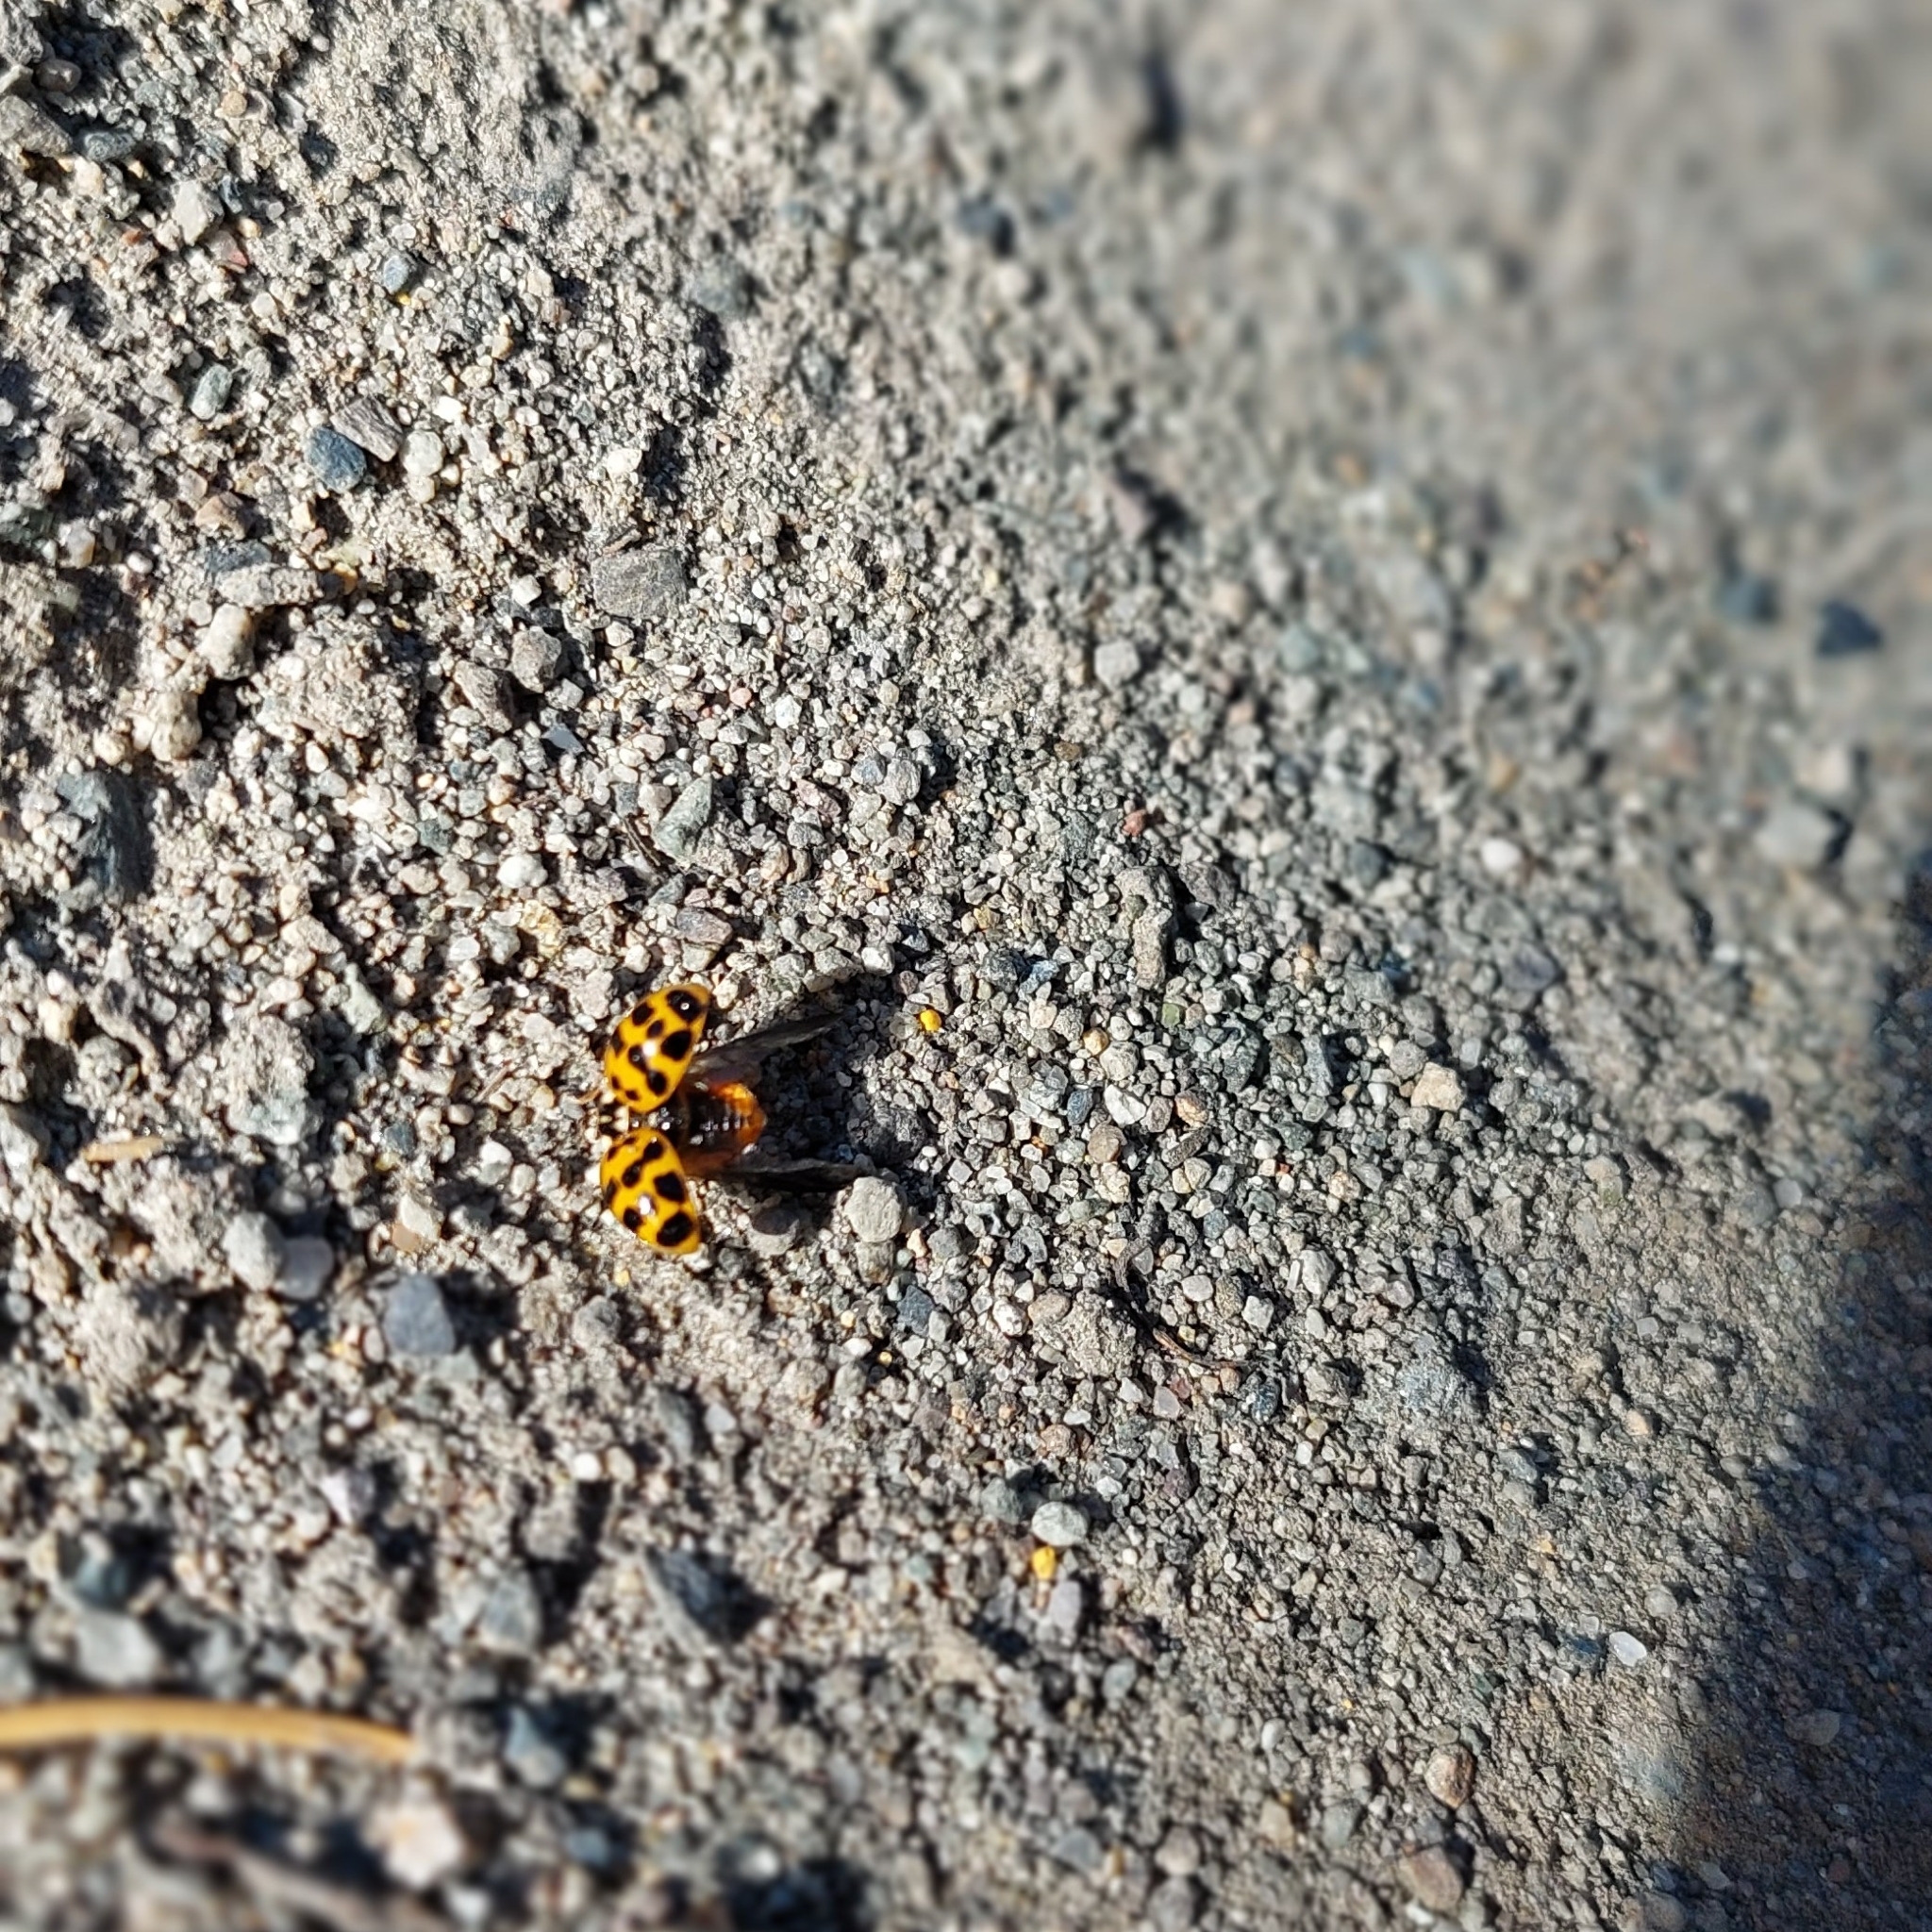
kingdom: Animalia
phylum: Arthropoda
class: Insecta
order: Coleoptera
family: Coccinellidae
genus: Harmonia
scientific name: Harmonia axyridis
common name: Harlequin ladybird
